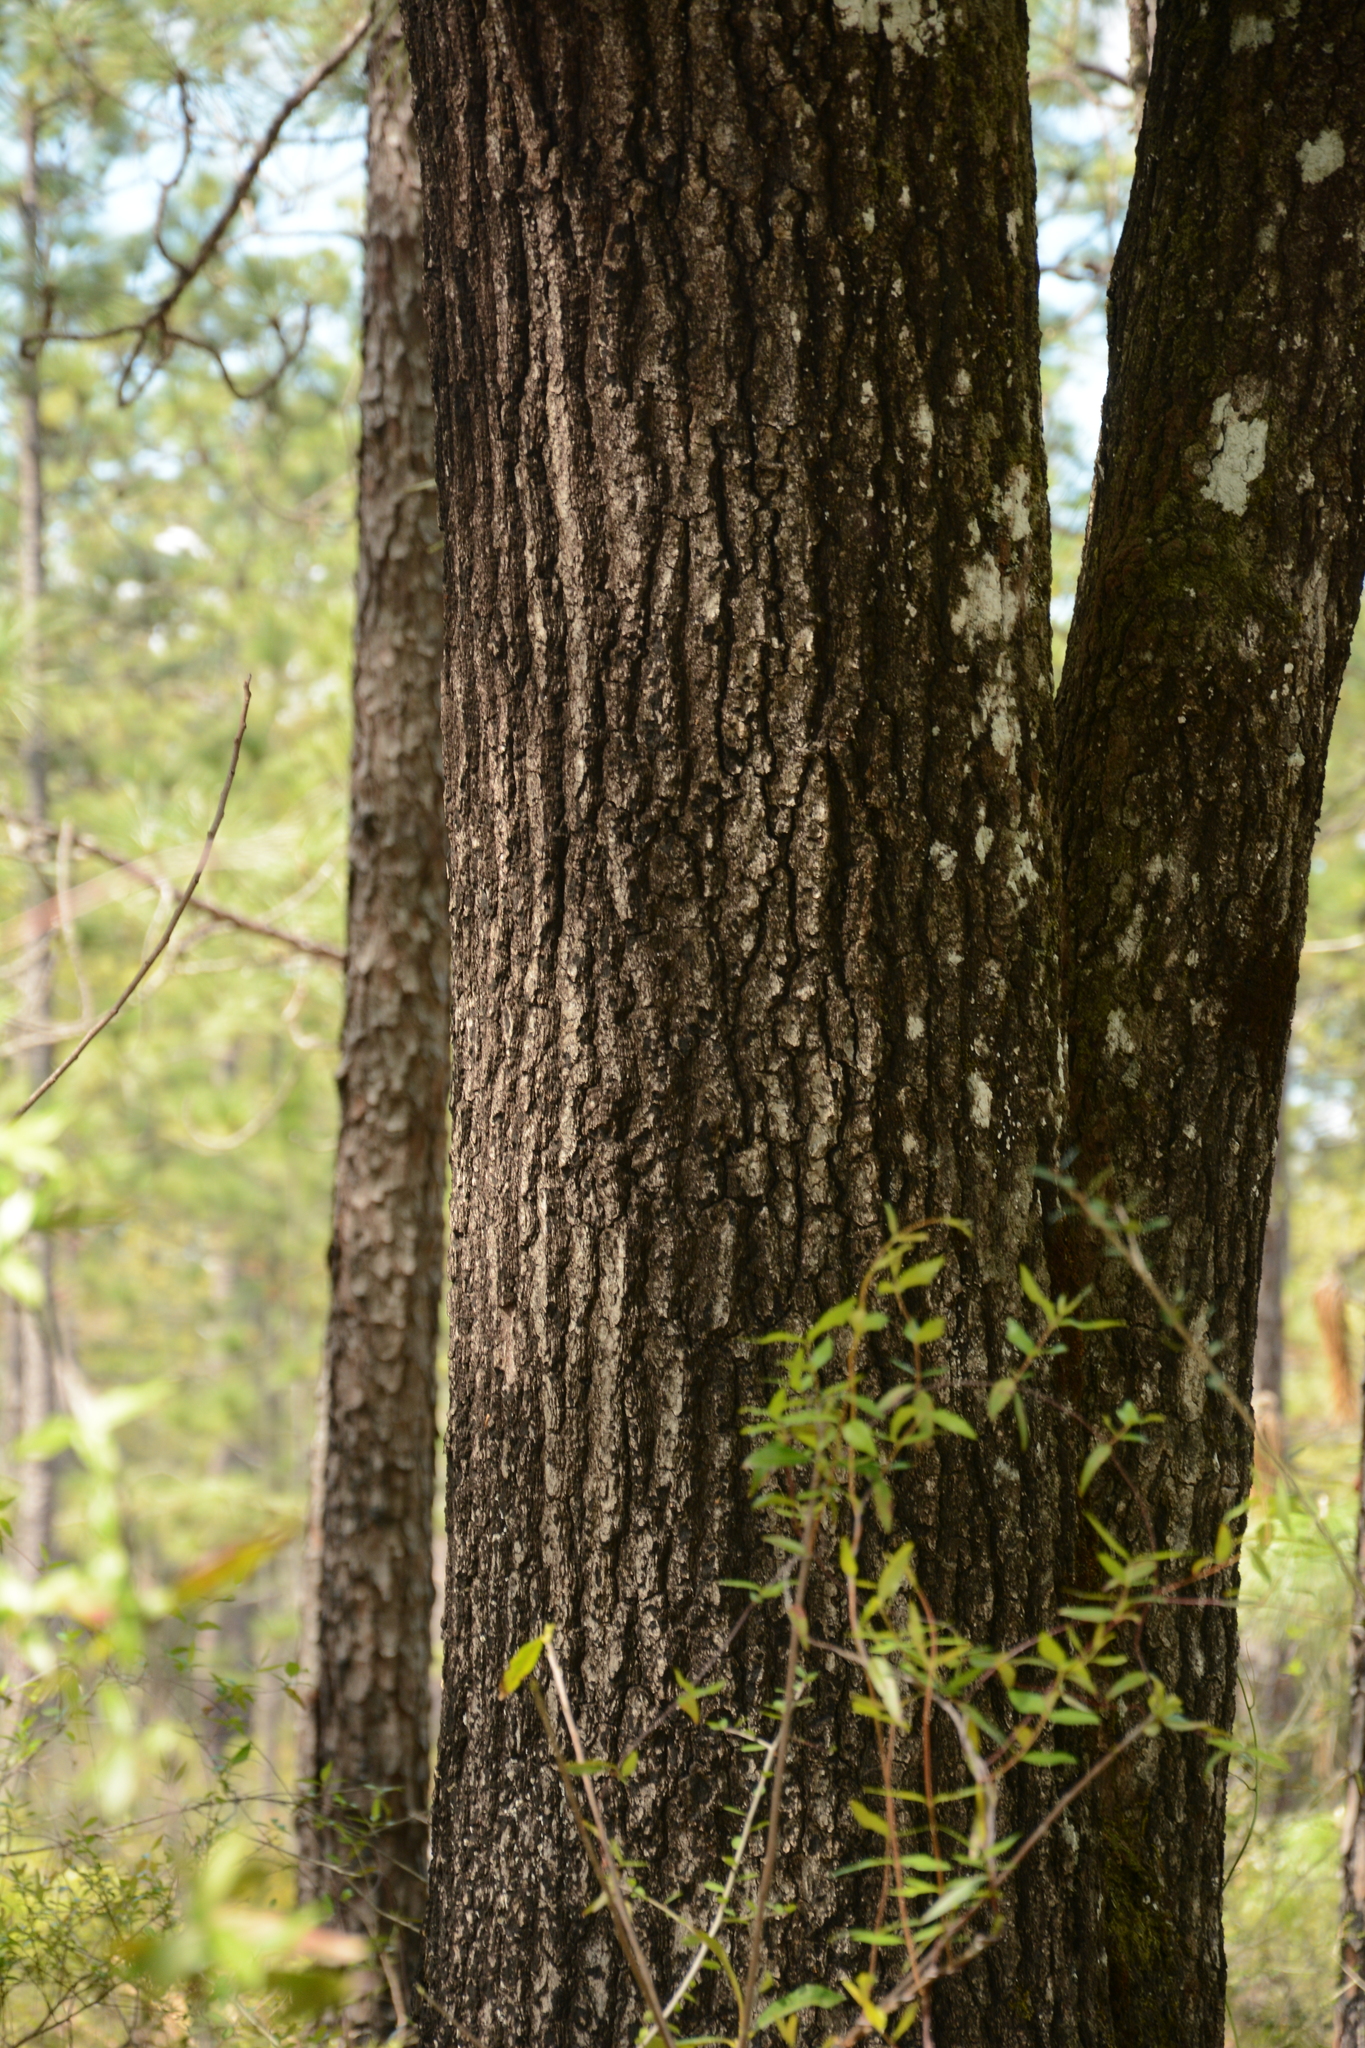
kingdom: Plantae
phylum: Tracheophyta
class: Magnoliopsida
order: Fagales
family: Fagaceae
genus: Quercus
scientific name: Quercus falcata
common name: Southern red oak
